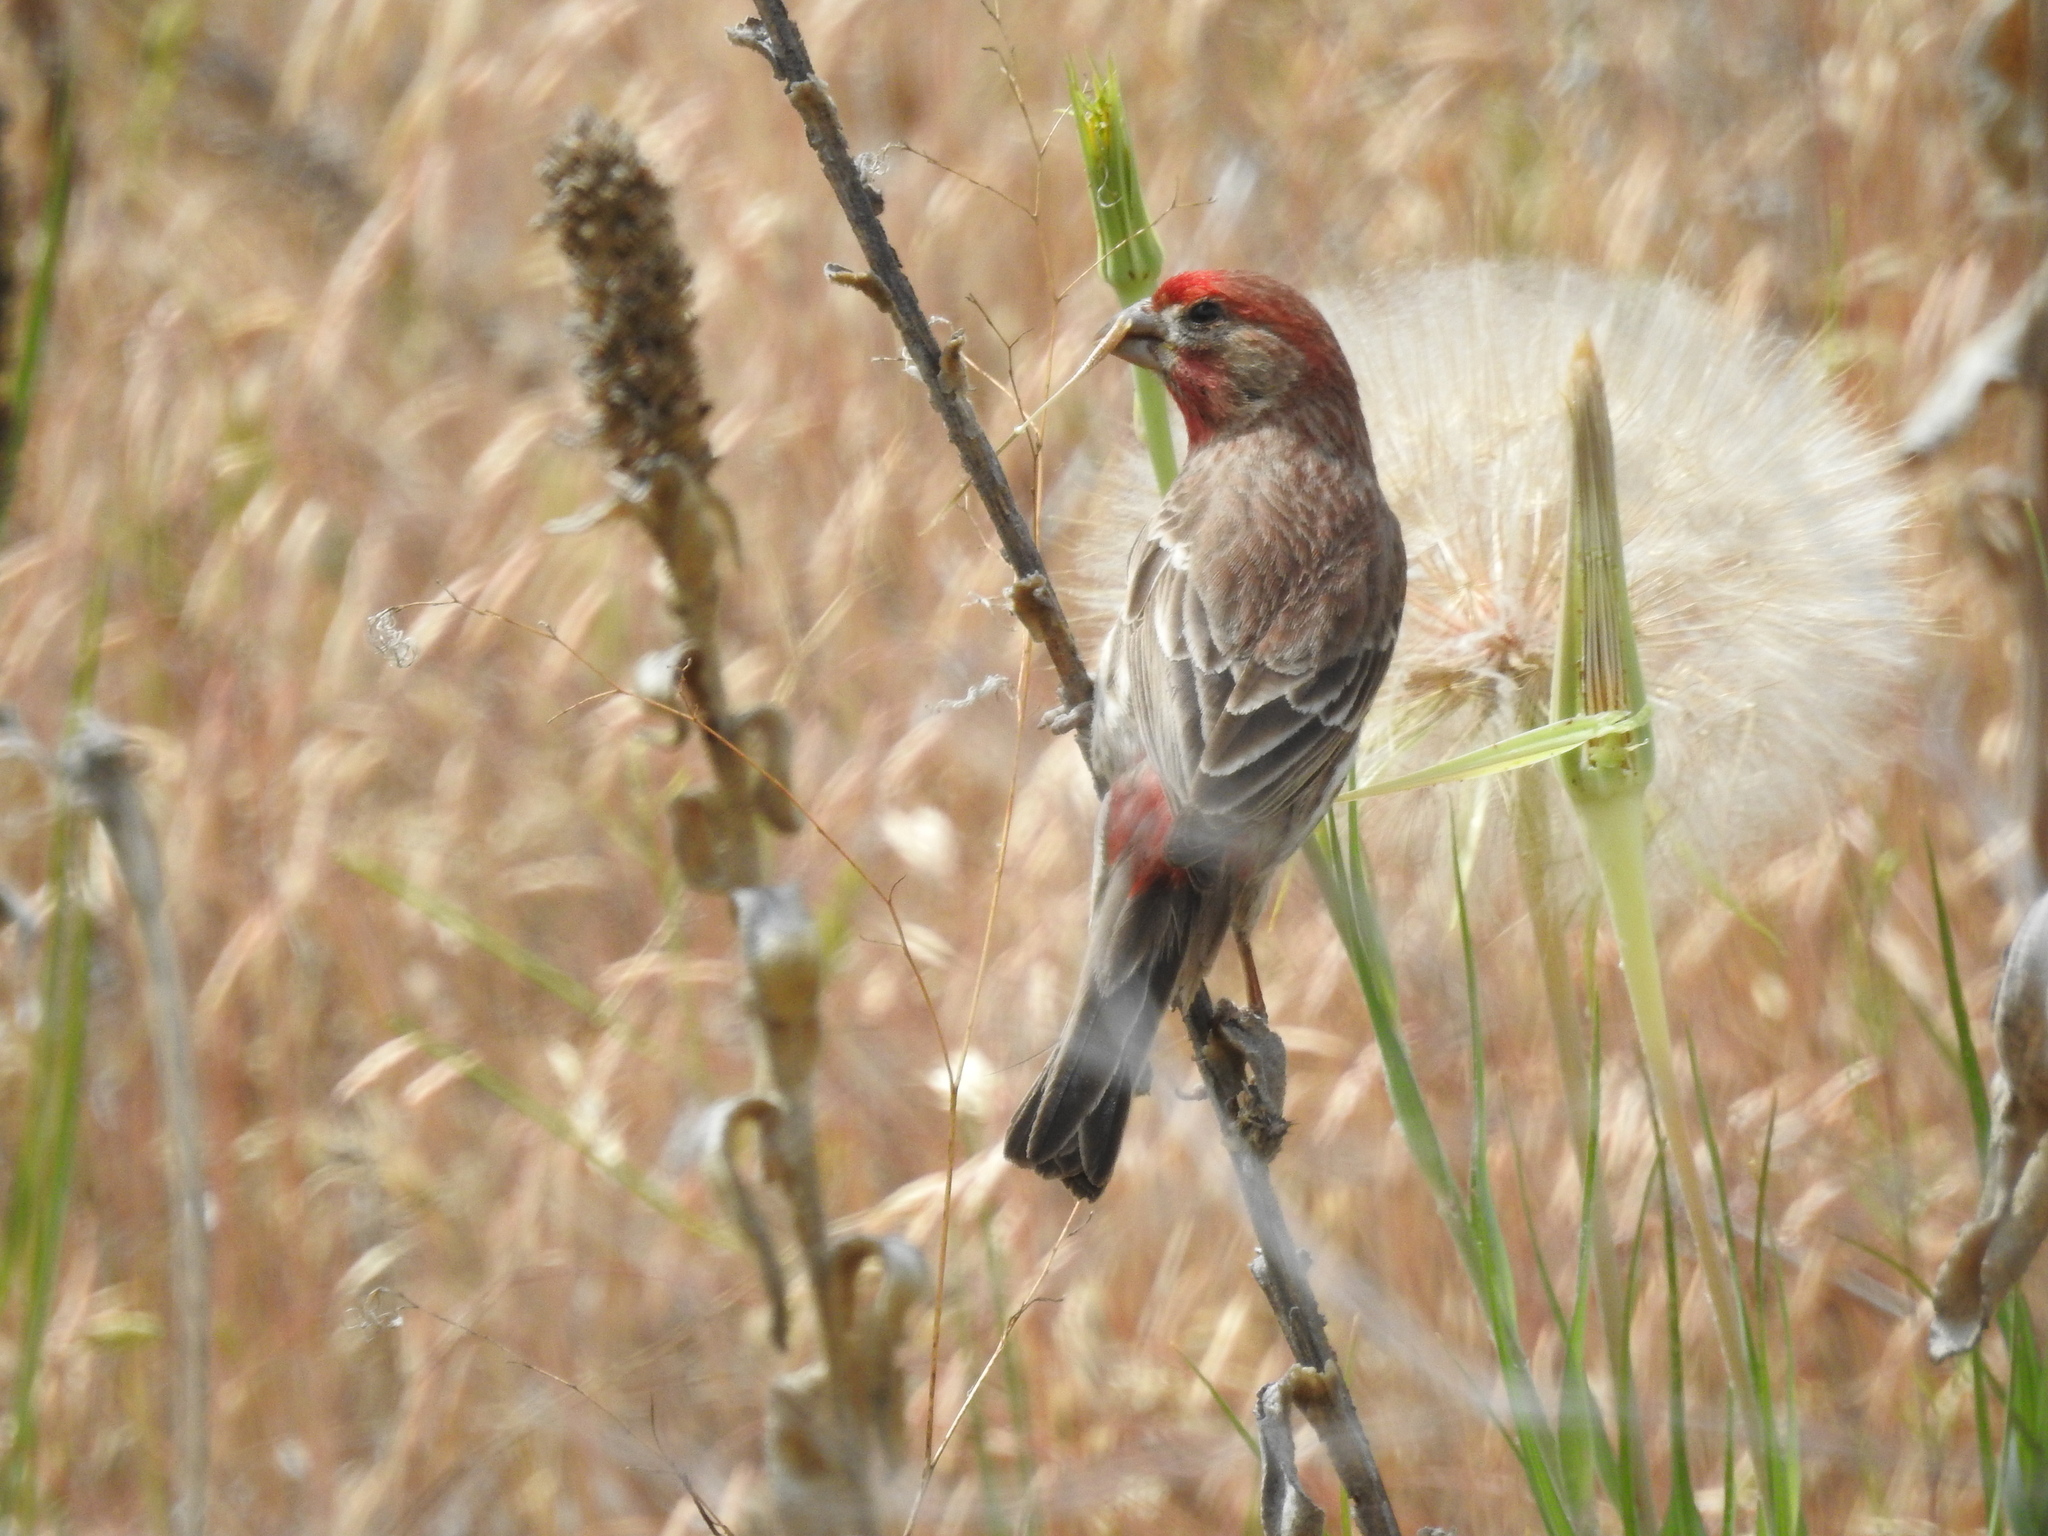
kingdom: Animalia
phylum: Chordata
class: Aves
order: Passeriformes
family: Fringillidae
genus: Haemorhous
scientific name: Haemorhous mexicanus
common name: House finch
